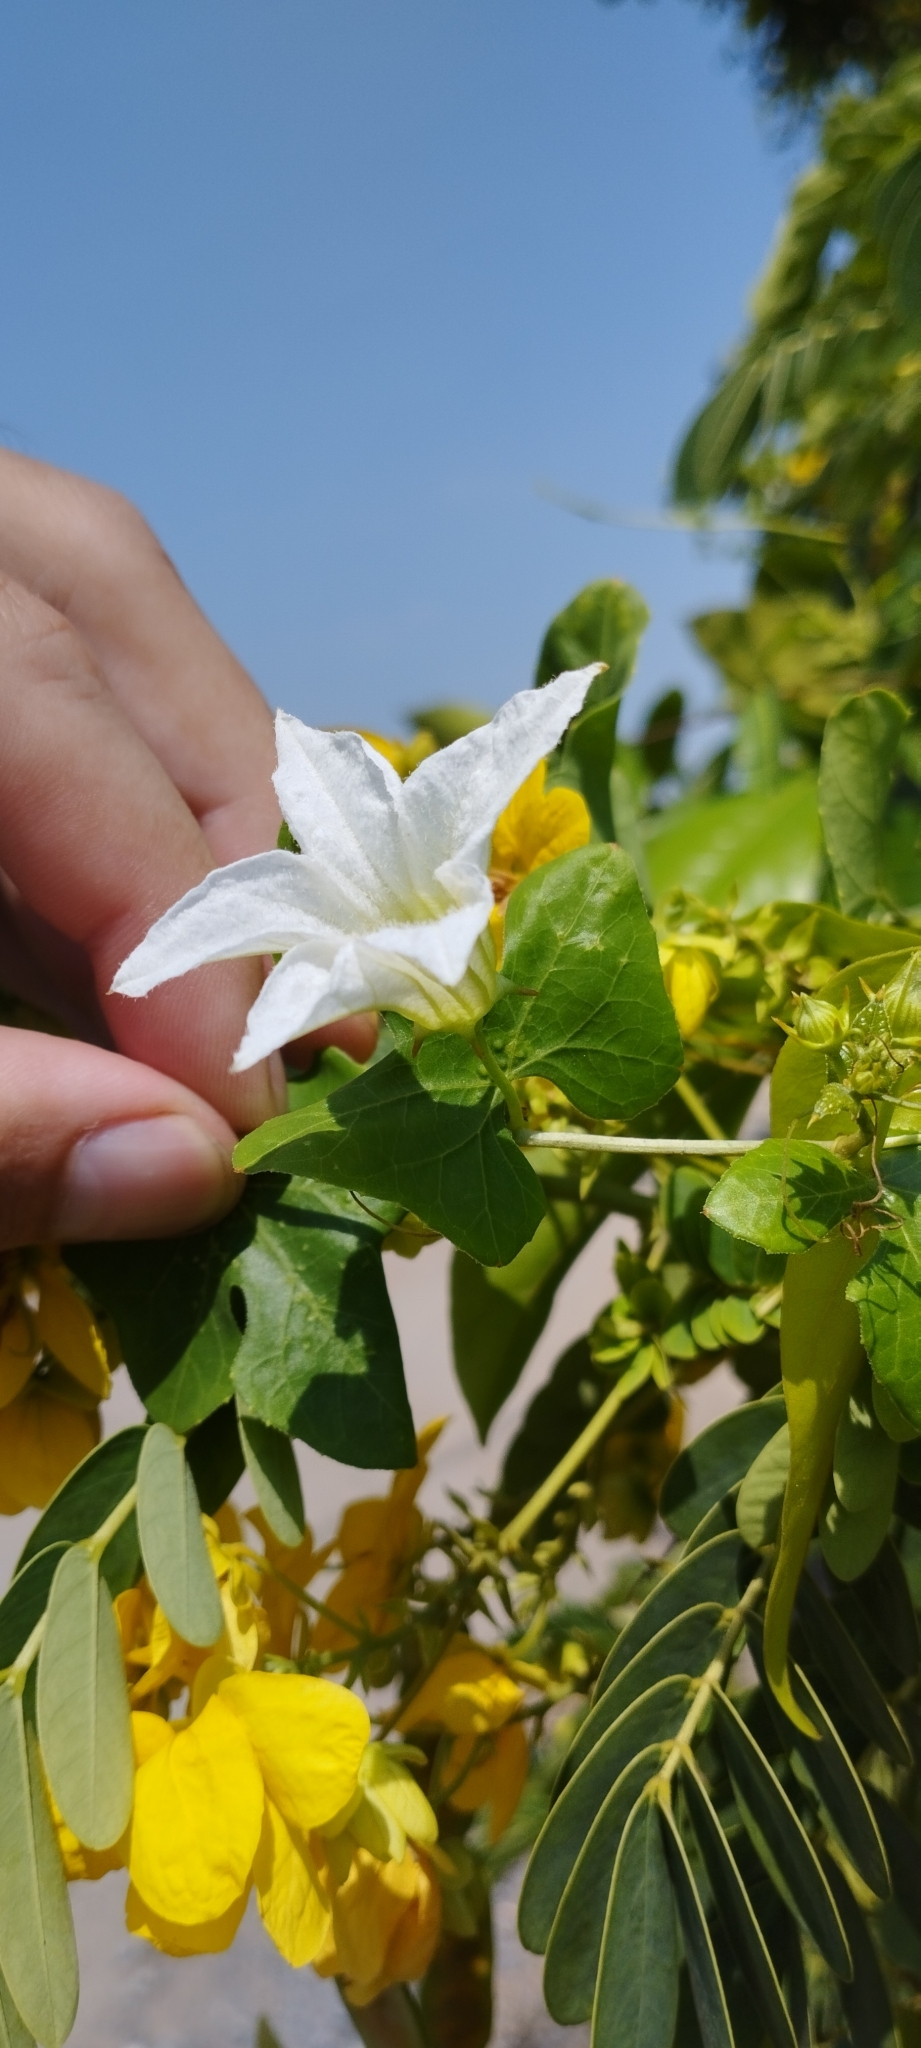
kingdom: Plantae
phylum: Tracheophyta
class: Magnoliopsida
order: Cucurbitales
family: Cucurbitaceae
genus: Coccinia
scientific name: Coccinia grandis
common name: Ivy gourd
